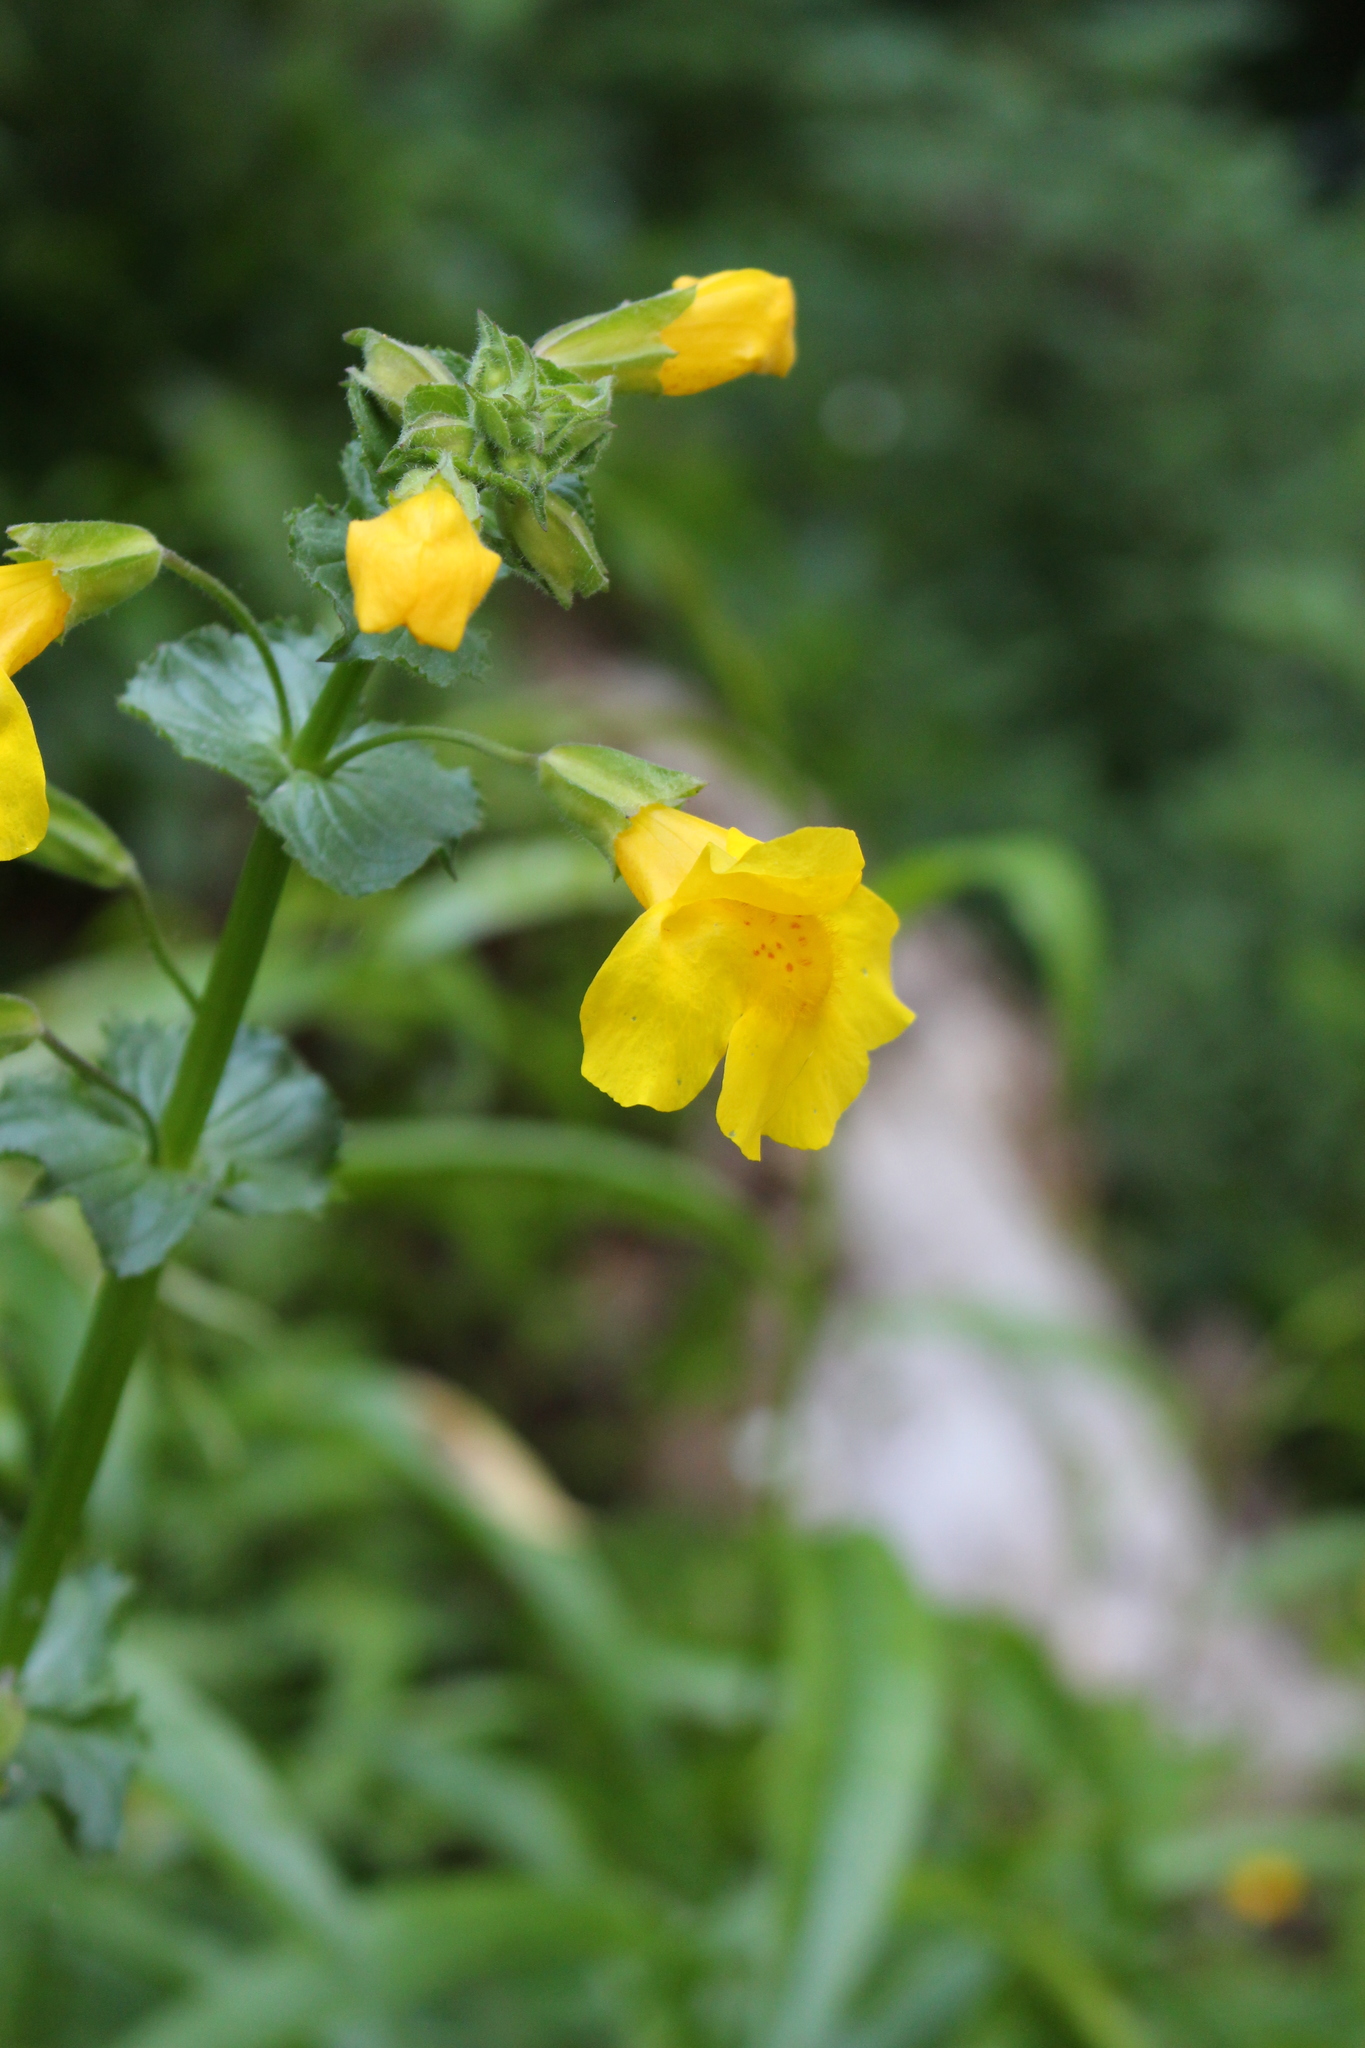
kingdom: Plantae
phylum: Tracheophyta
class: Magnoliopsida
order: Lamiales
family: Phrymaceae
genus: Erythranthe
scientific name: Erythranthe guttata
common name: Monkeyflower
